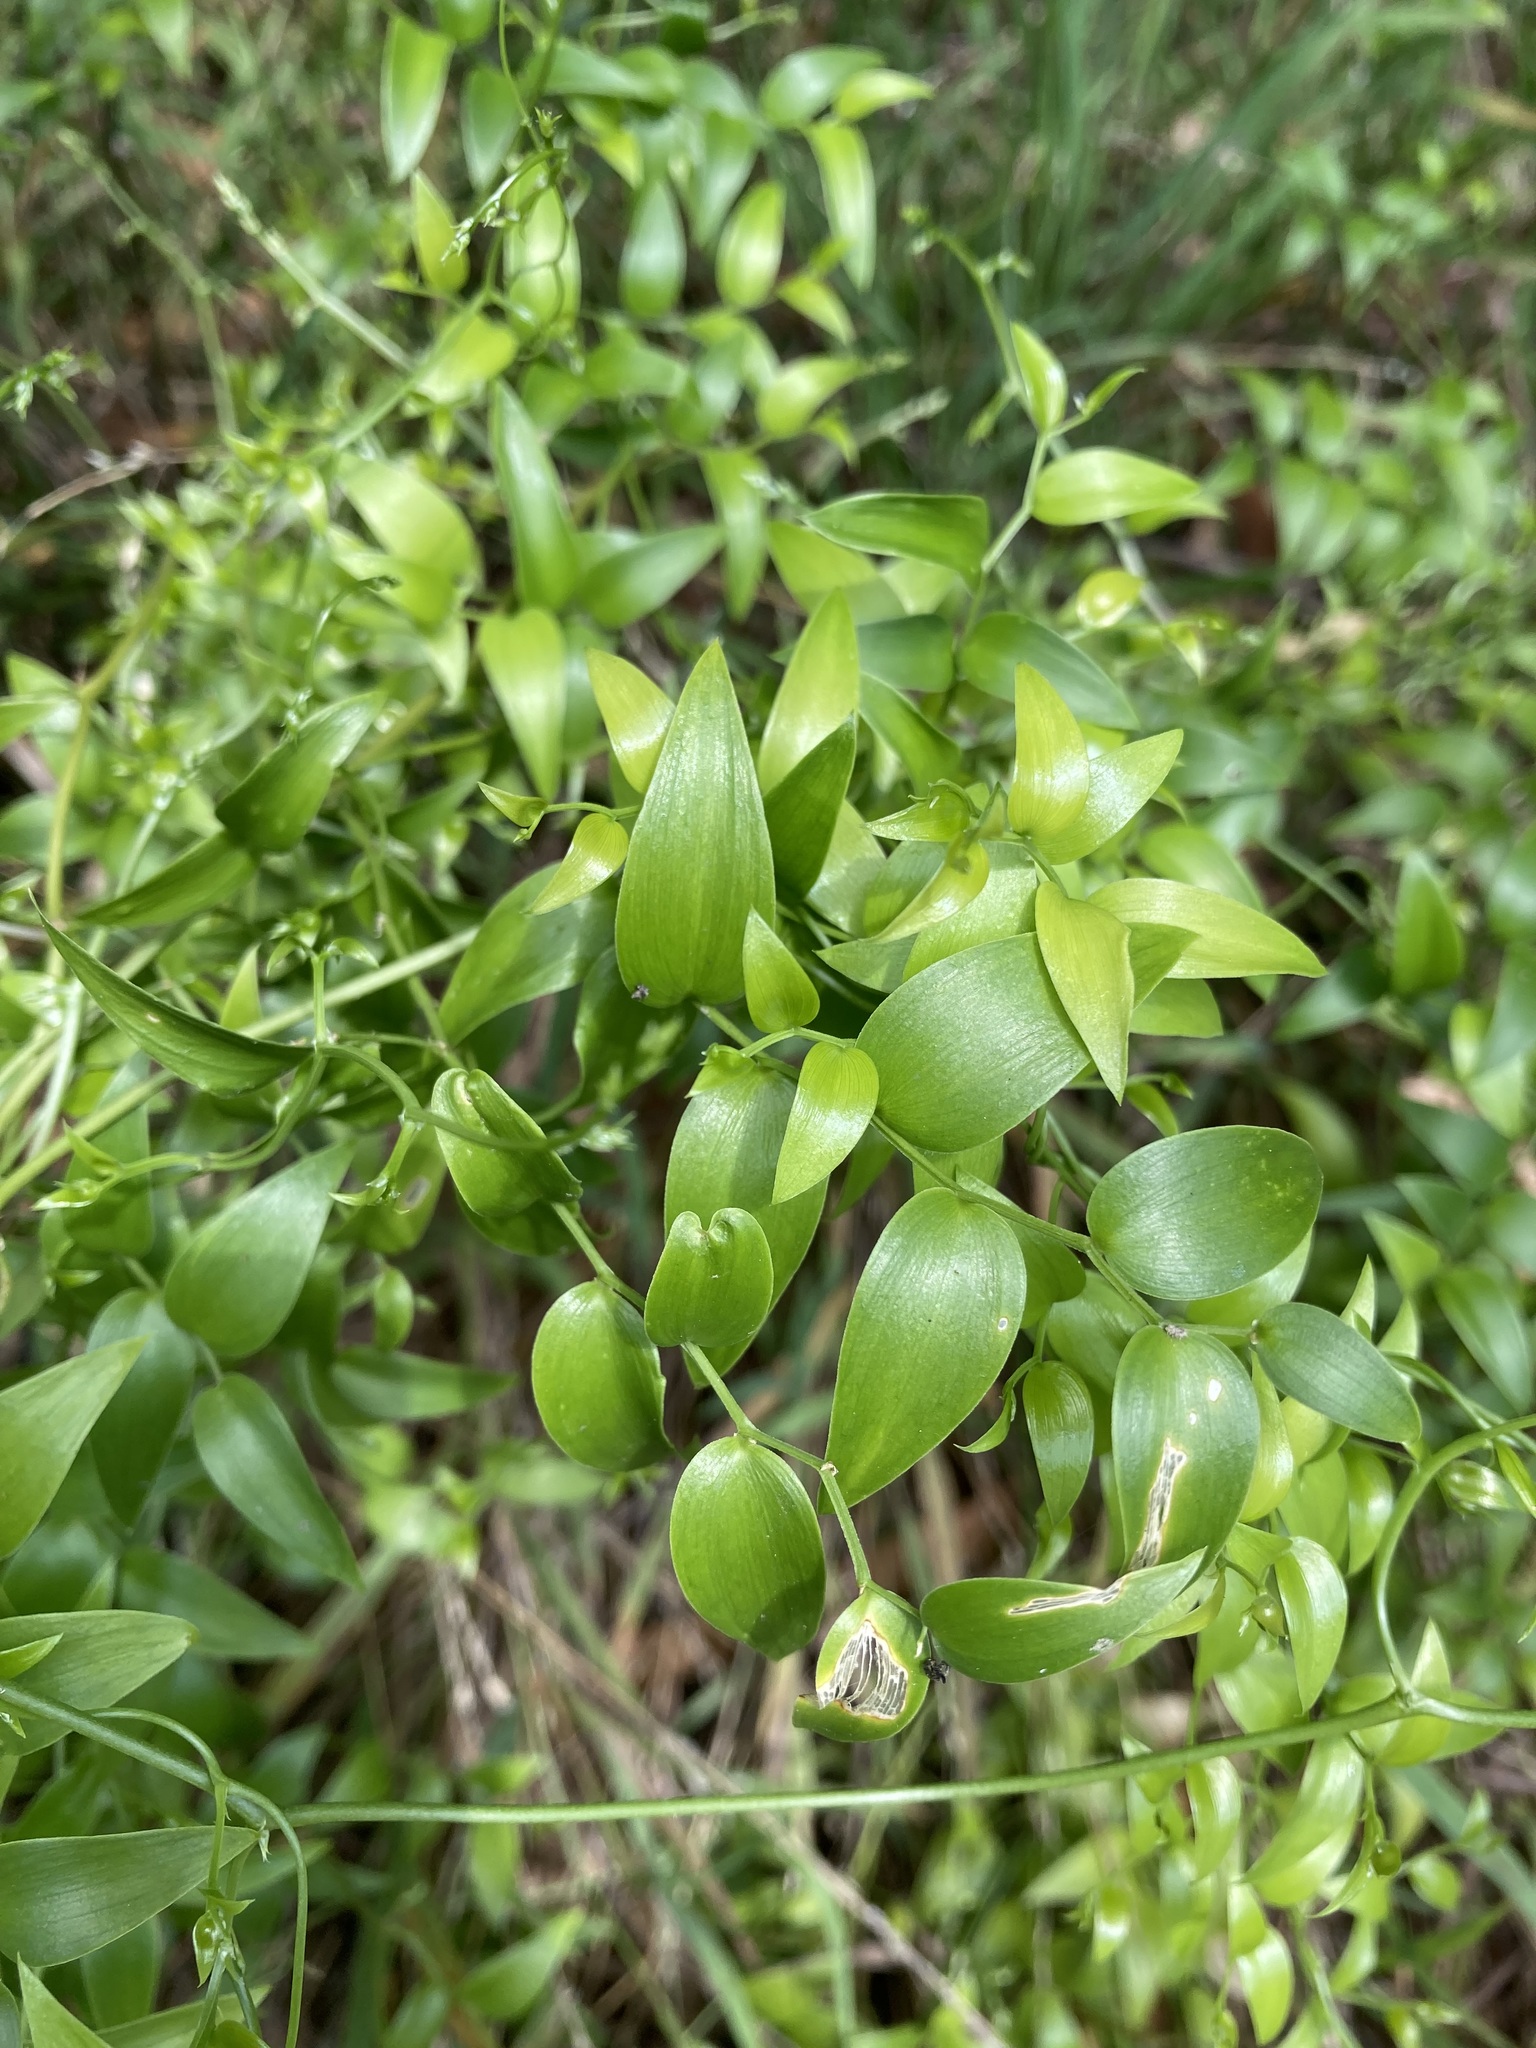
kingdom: Plantae
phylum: Tracheophyta
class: Liliopsida
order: Asparagales
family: Asparagaceae
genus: Asparagus
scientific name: Asparagus asparagoides
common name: African asparagus fern
